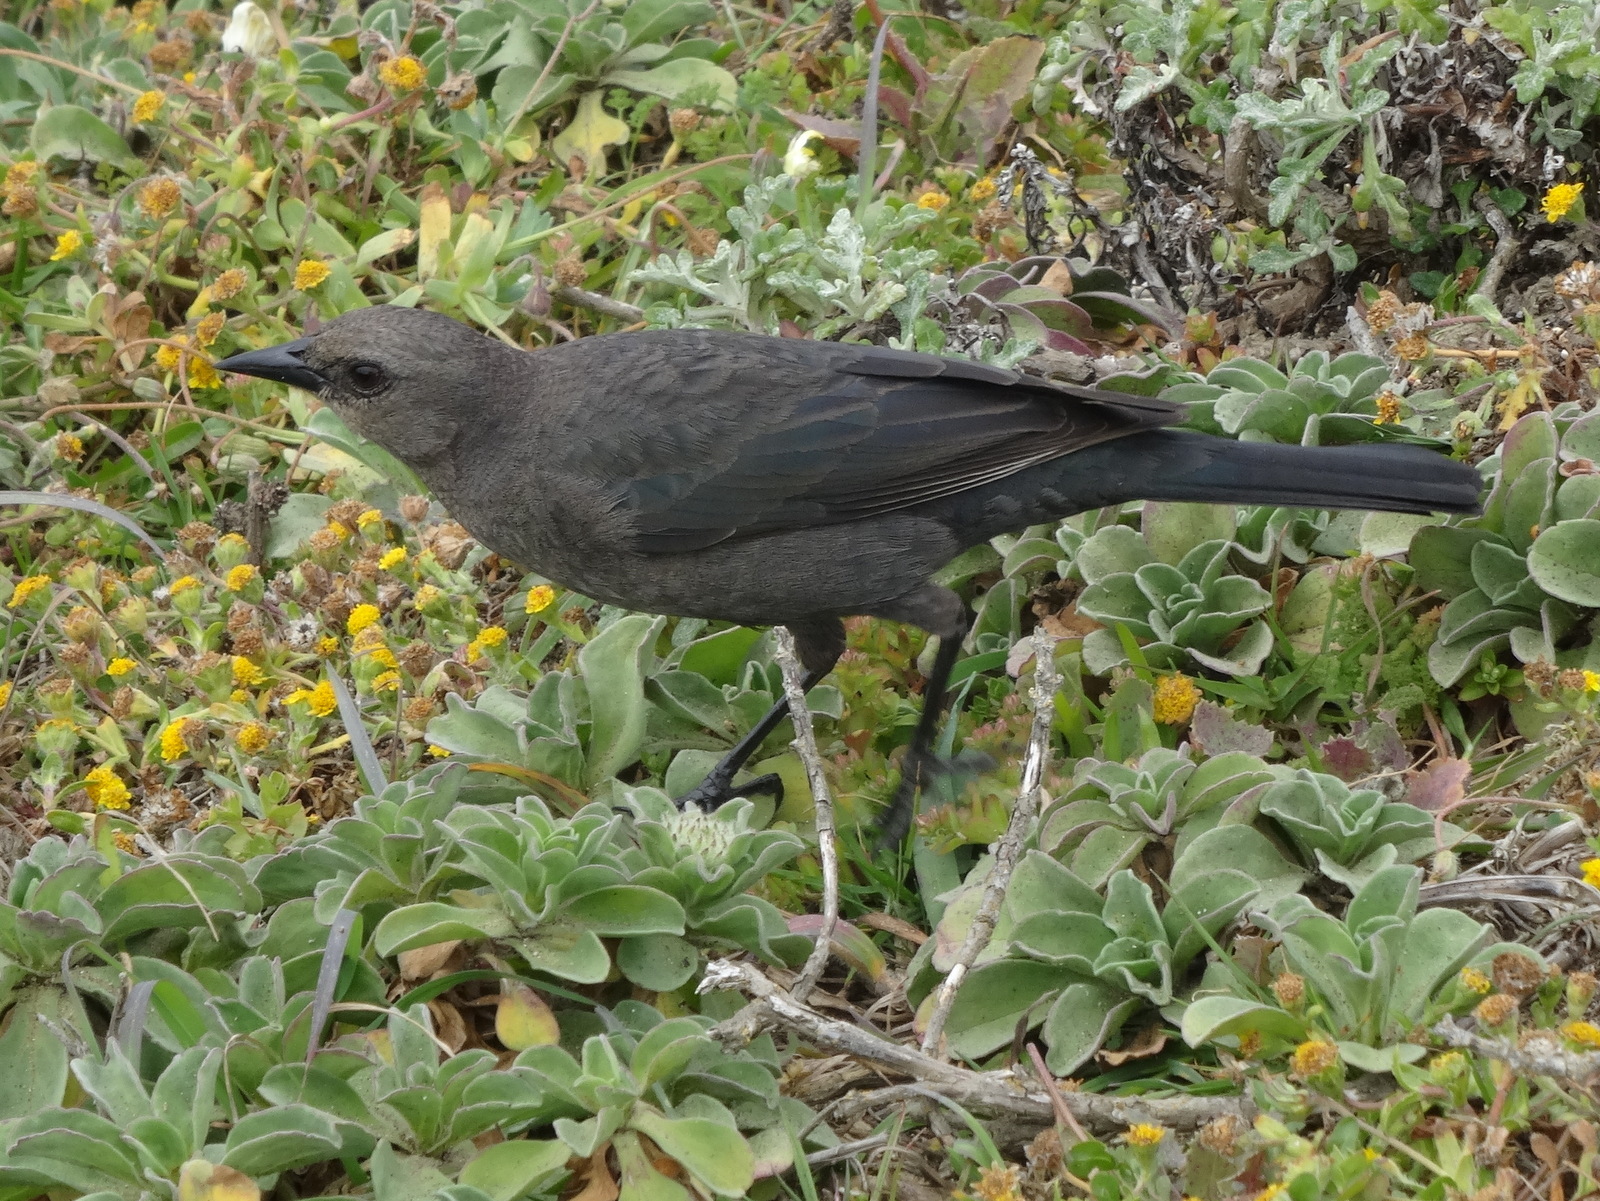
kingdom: Animalia
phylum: Chordata
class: Aves
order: Passeriformes
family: Icteridae
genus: Euphagus
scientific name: Euphagus cyanocephalus
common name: Brewer's blackbird
